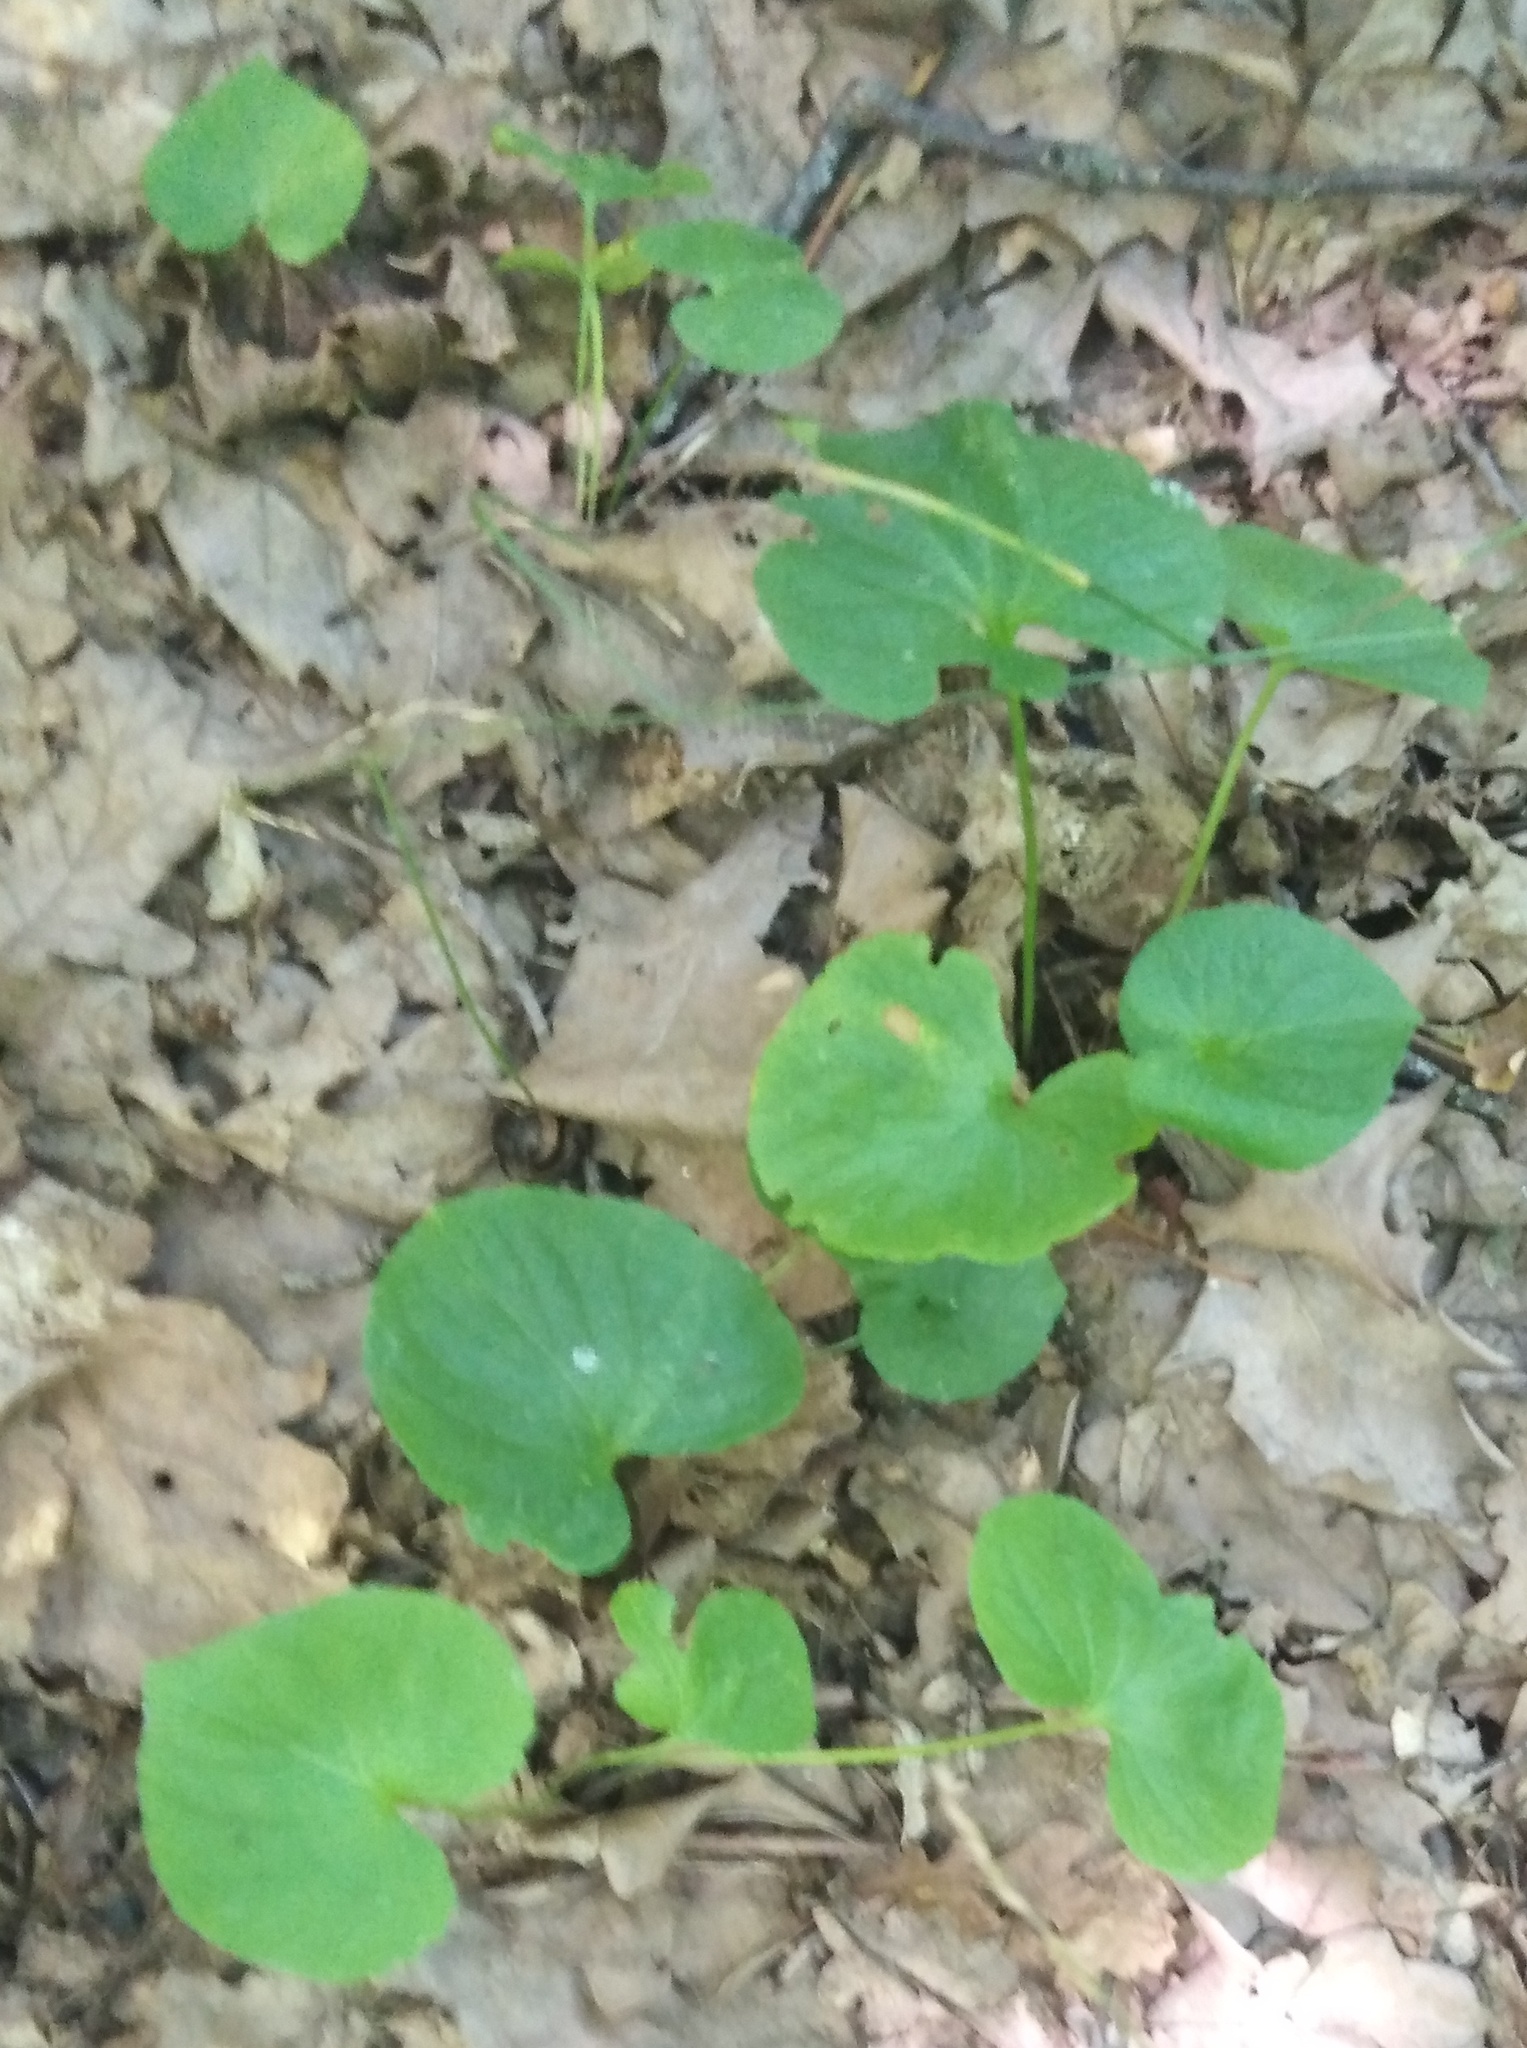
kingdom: Plantae
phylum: Tracheophyta
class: Magnoliopsida
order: Malpighiales
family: Violaceae
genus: Viola
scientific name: Viola mirabilis
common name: Wonder violet
